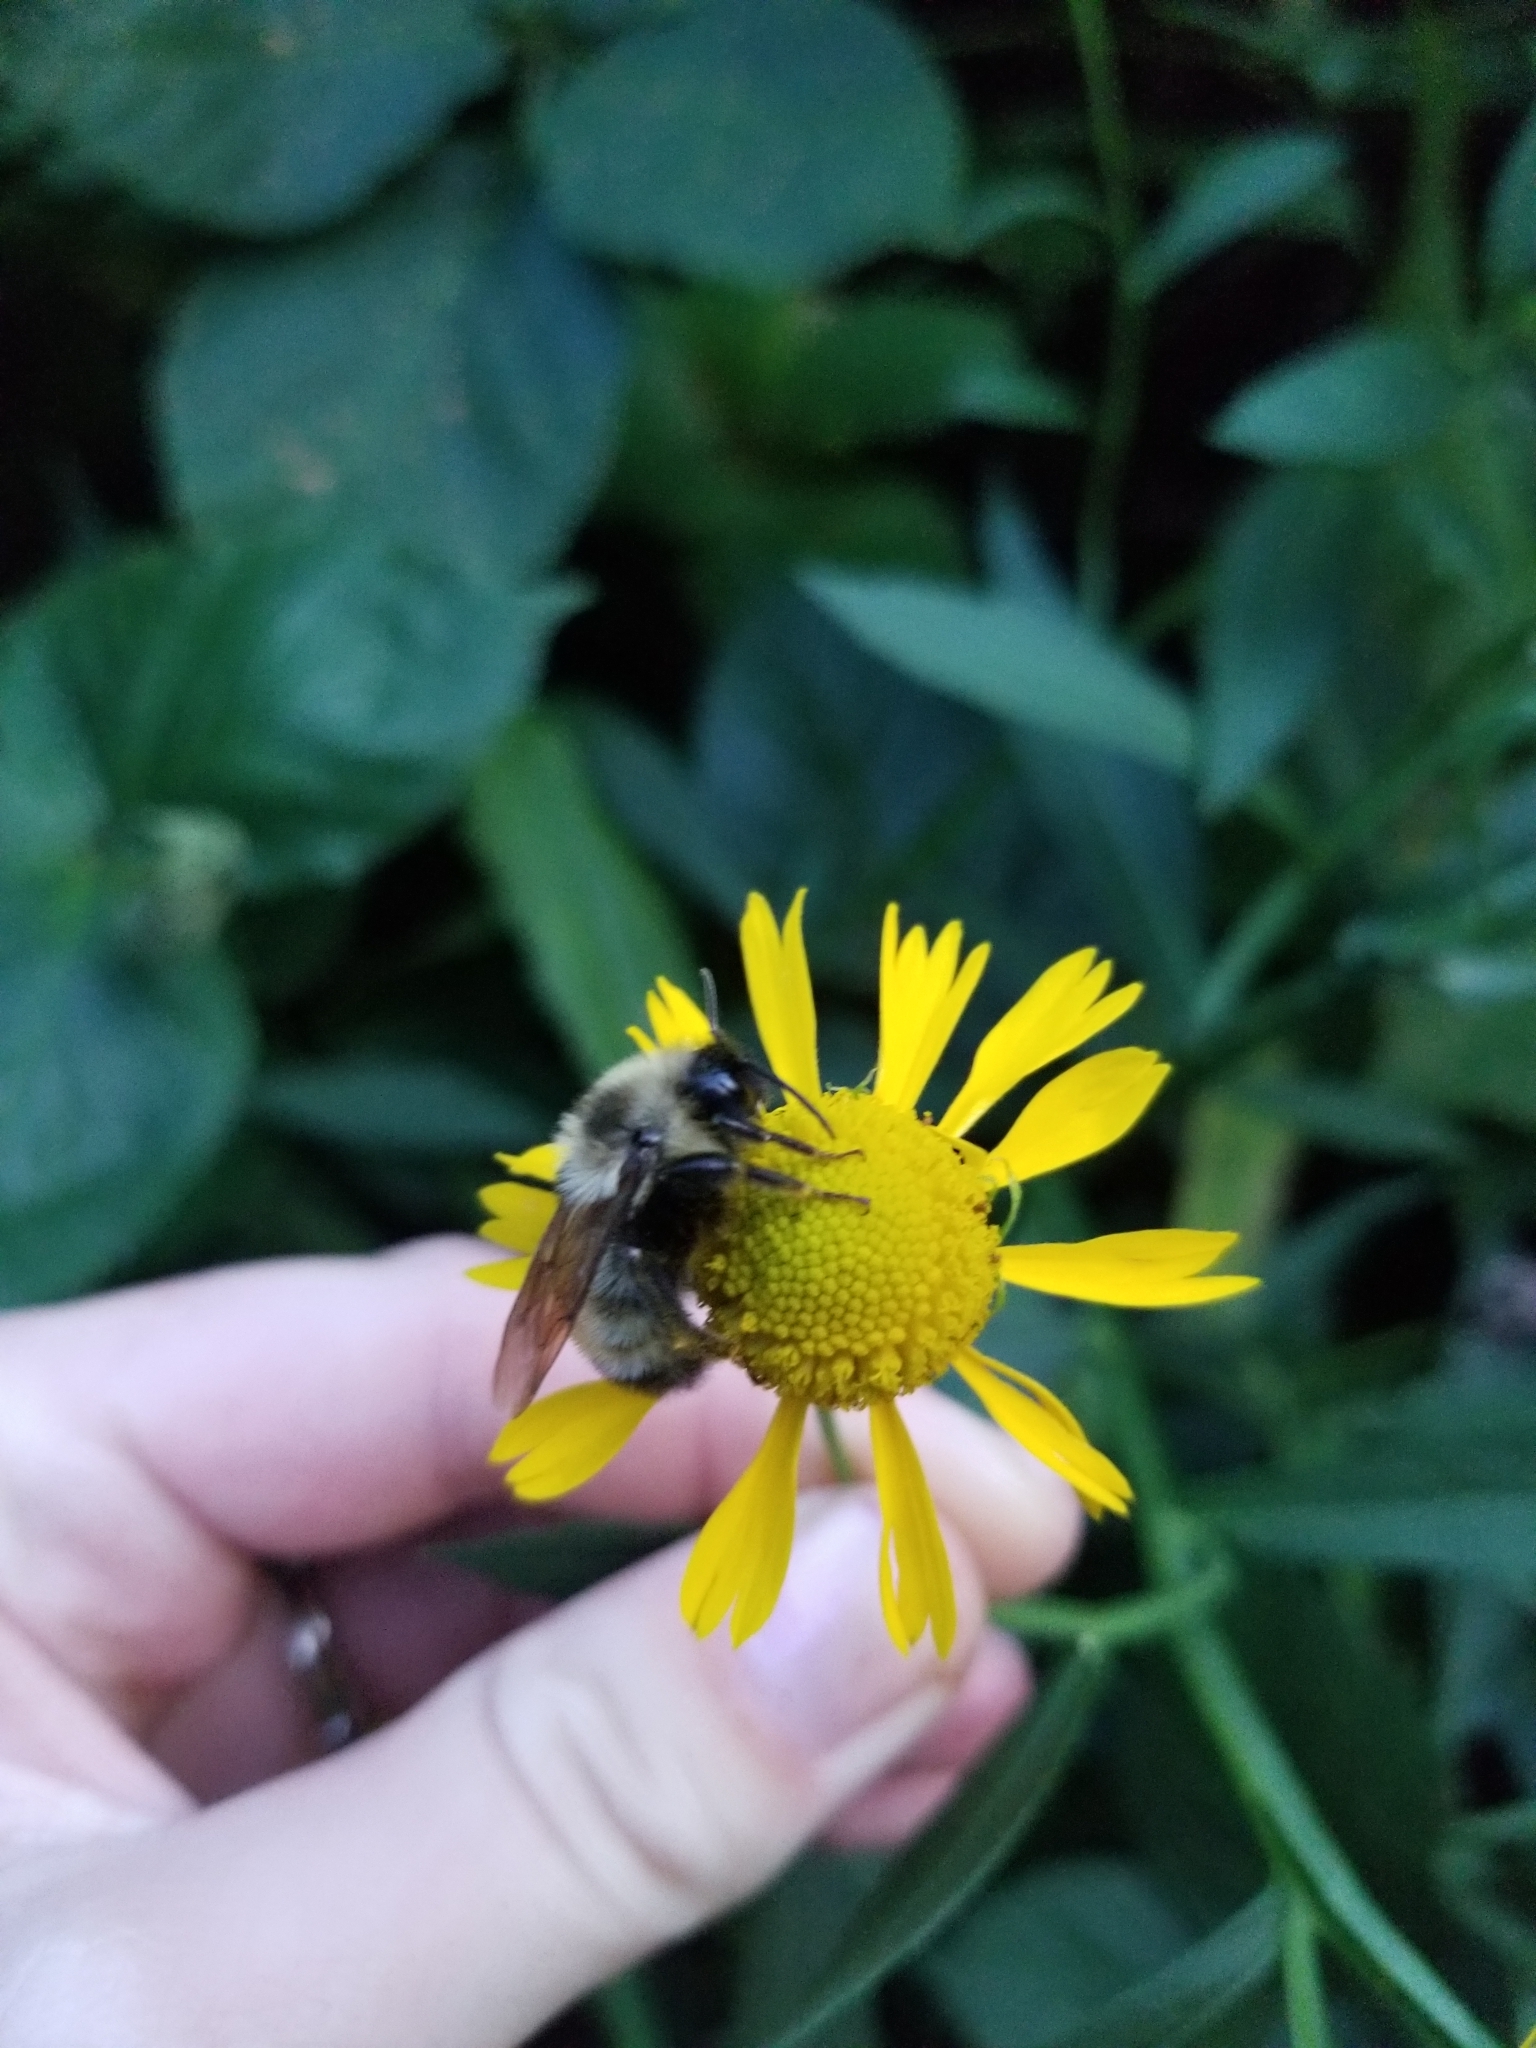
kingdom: Animalia
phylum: Arthropoda
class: Insecta
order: Hymenoptera
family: Apidae
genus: Bombus
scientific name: Bombus citrinus
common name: Lemon cuckoo bumble bee
